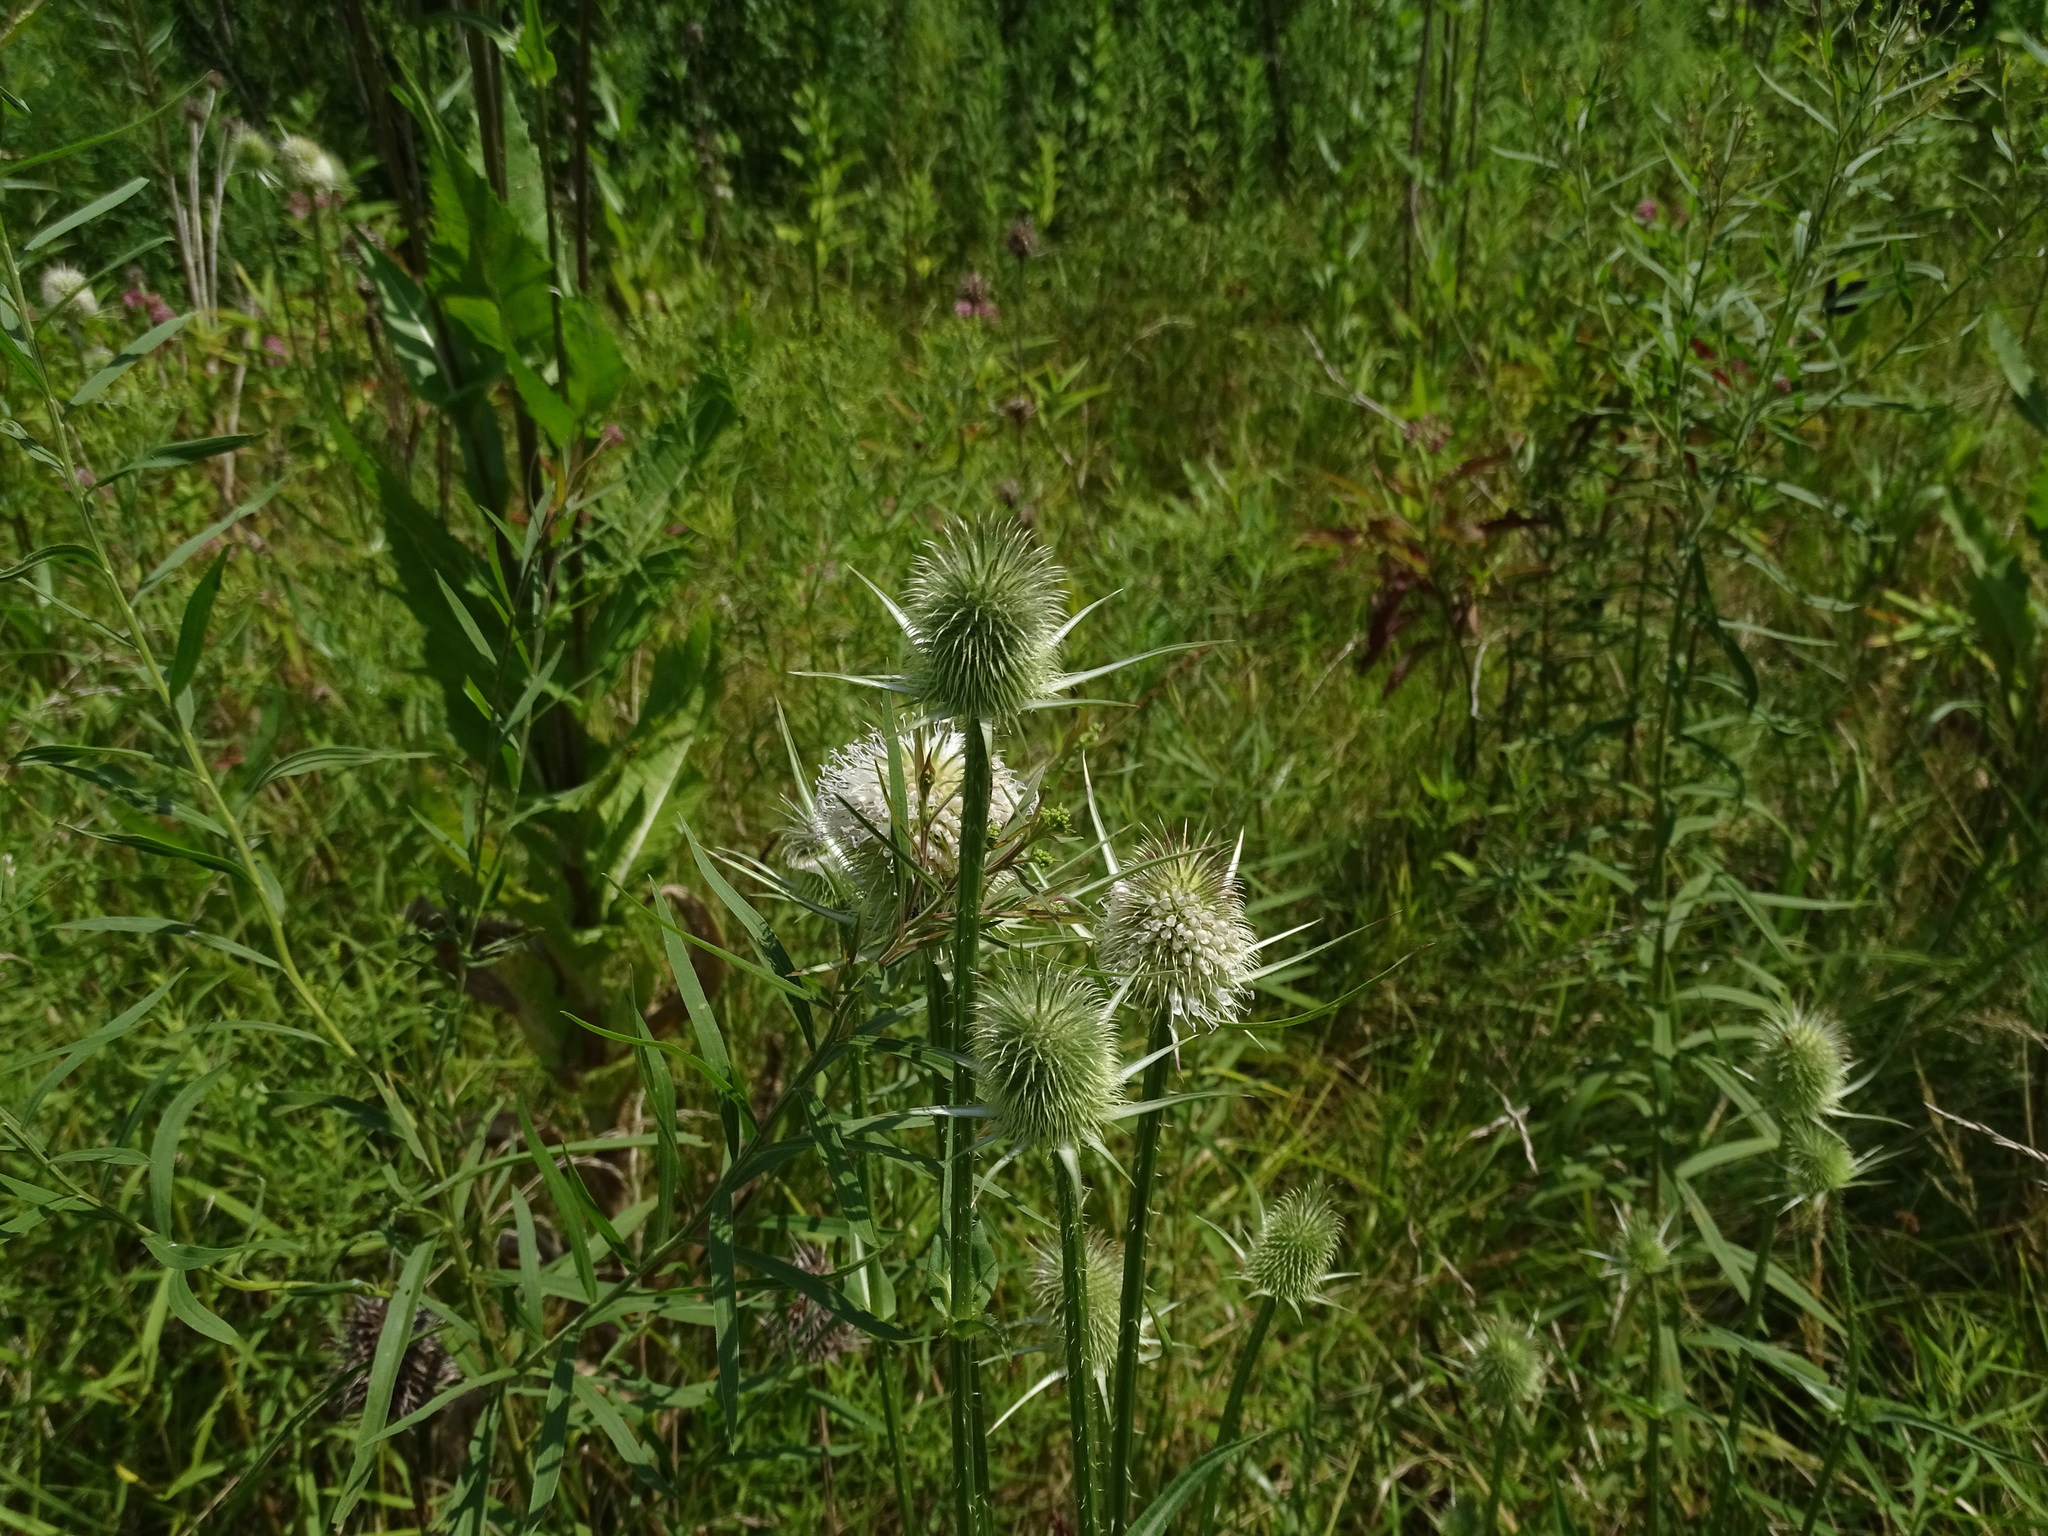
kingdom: Plantae
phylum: Tracheophyta
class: Magnoliopsida
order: Dipsacales
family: Caprifoliaceae
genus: Dipsacus
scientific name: Dipsacus laciniatus
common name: Cut-leaved teasel
